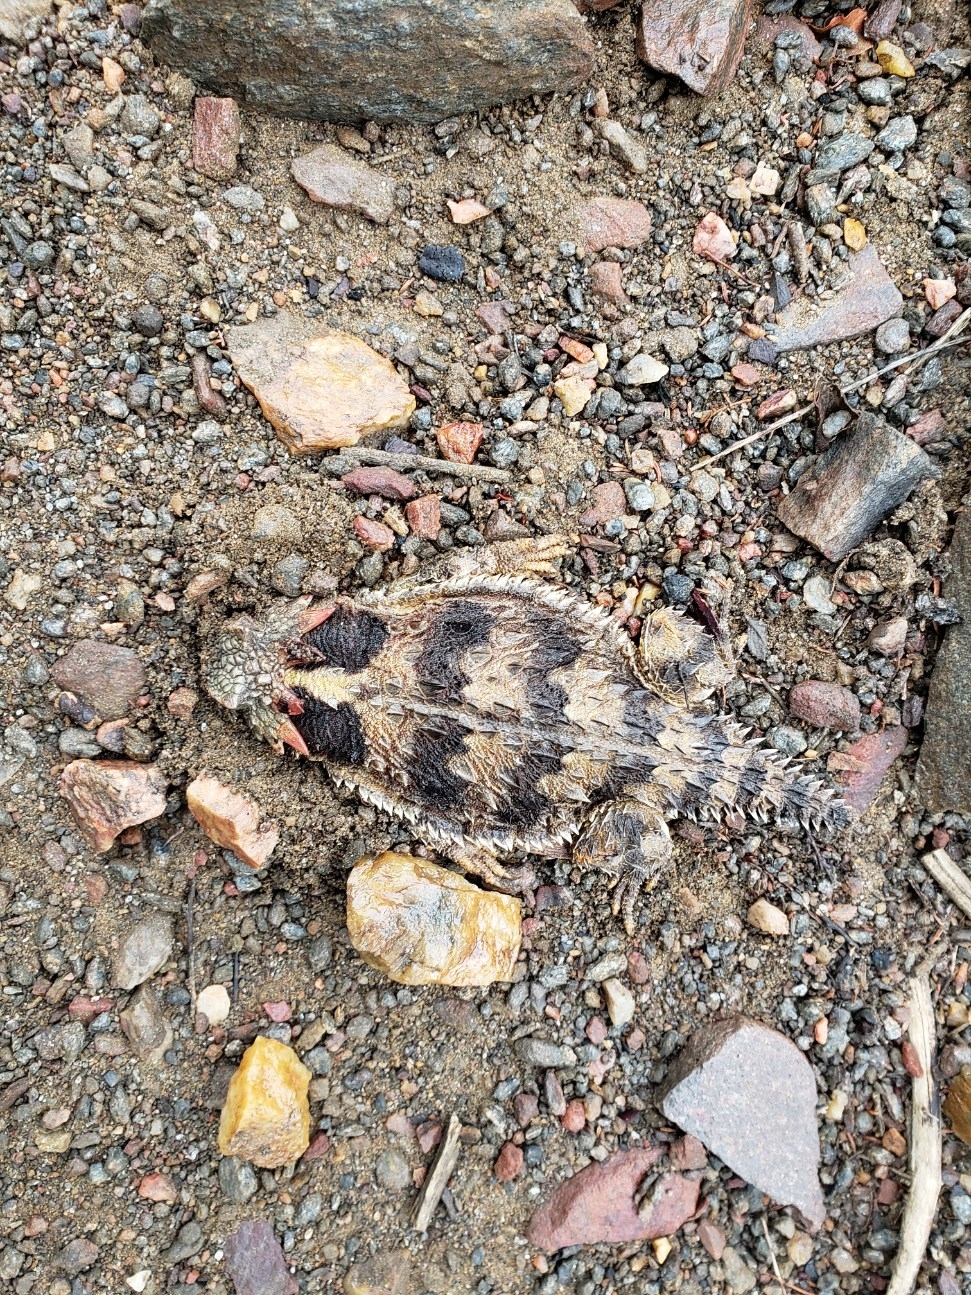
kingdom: Animalia
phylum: Chordata
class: Squamata
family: Phrynosomatidae
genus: Phrynosoma
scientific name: Phrynosoma blainvillii
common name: San diego horned lizard
